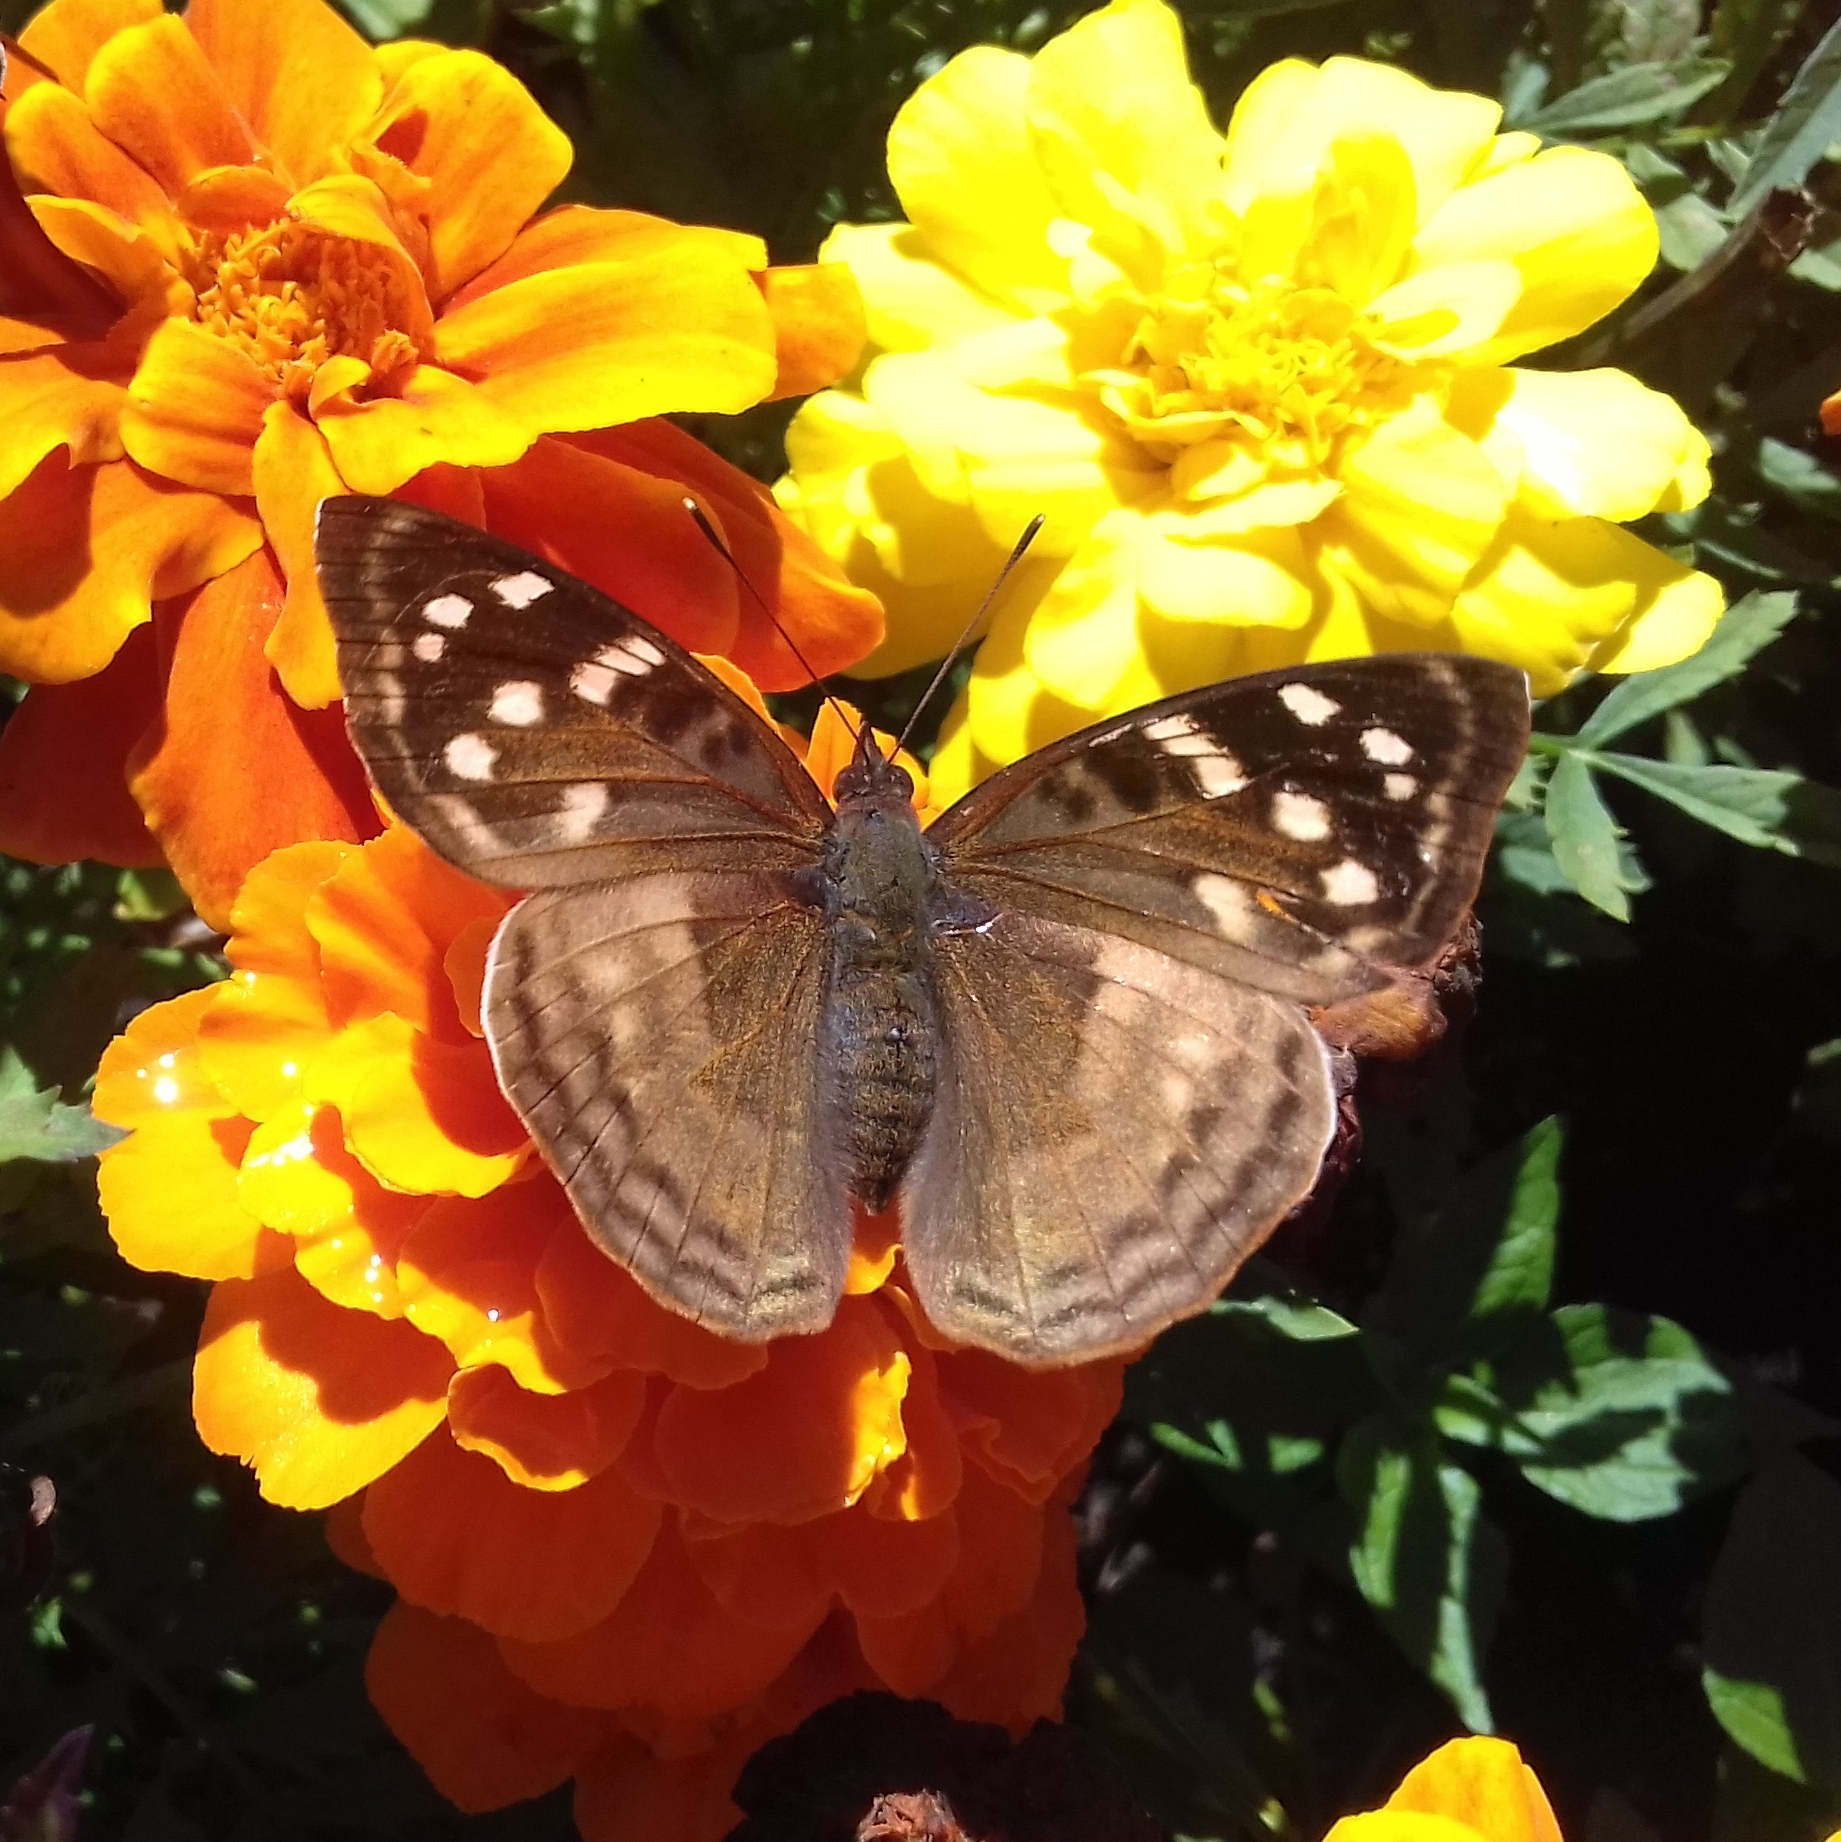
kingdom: Animalia
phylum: Arthropoda
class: Insecta
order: Lepidoptera
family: Nymphalidae
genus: Doxocopa
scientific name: Doxocopa kallina
